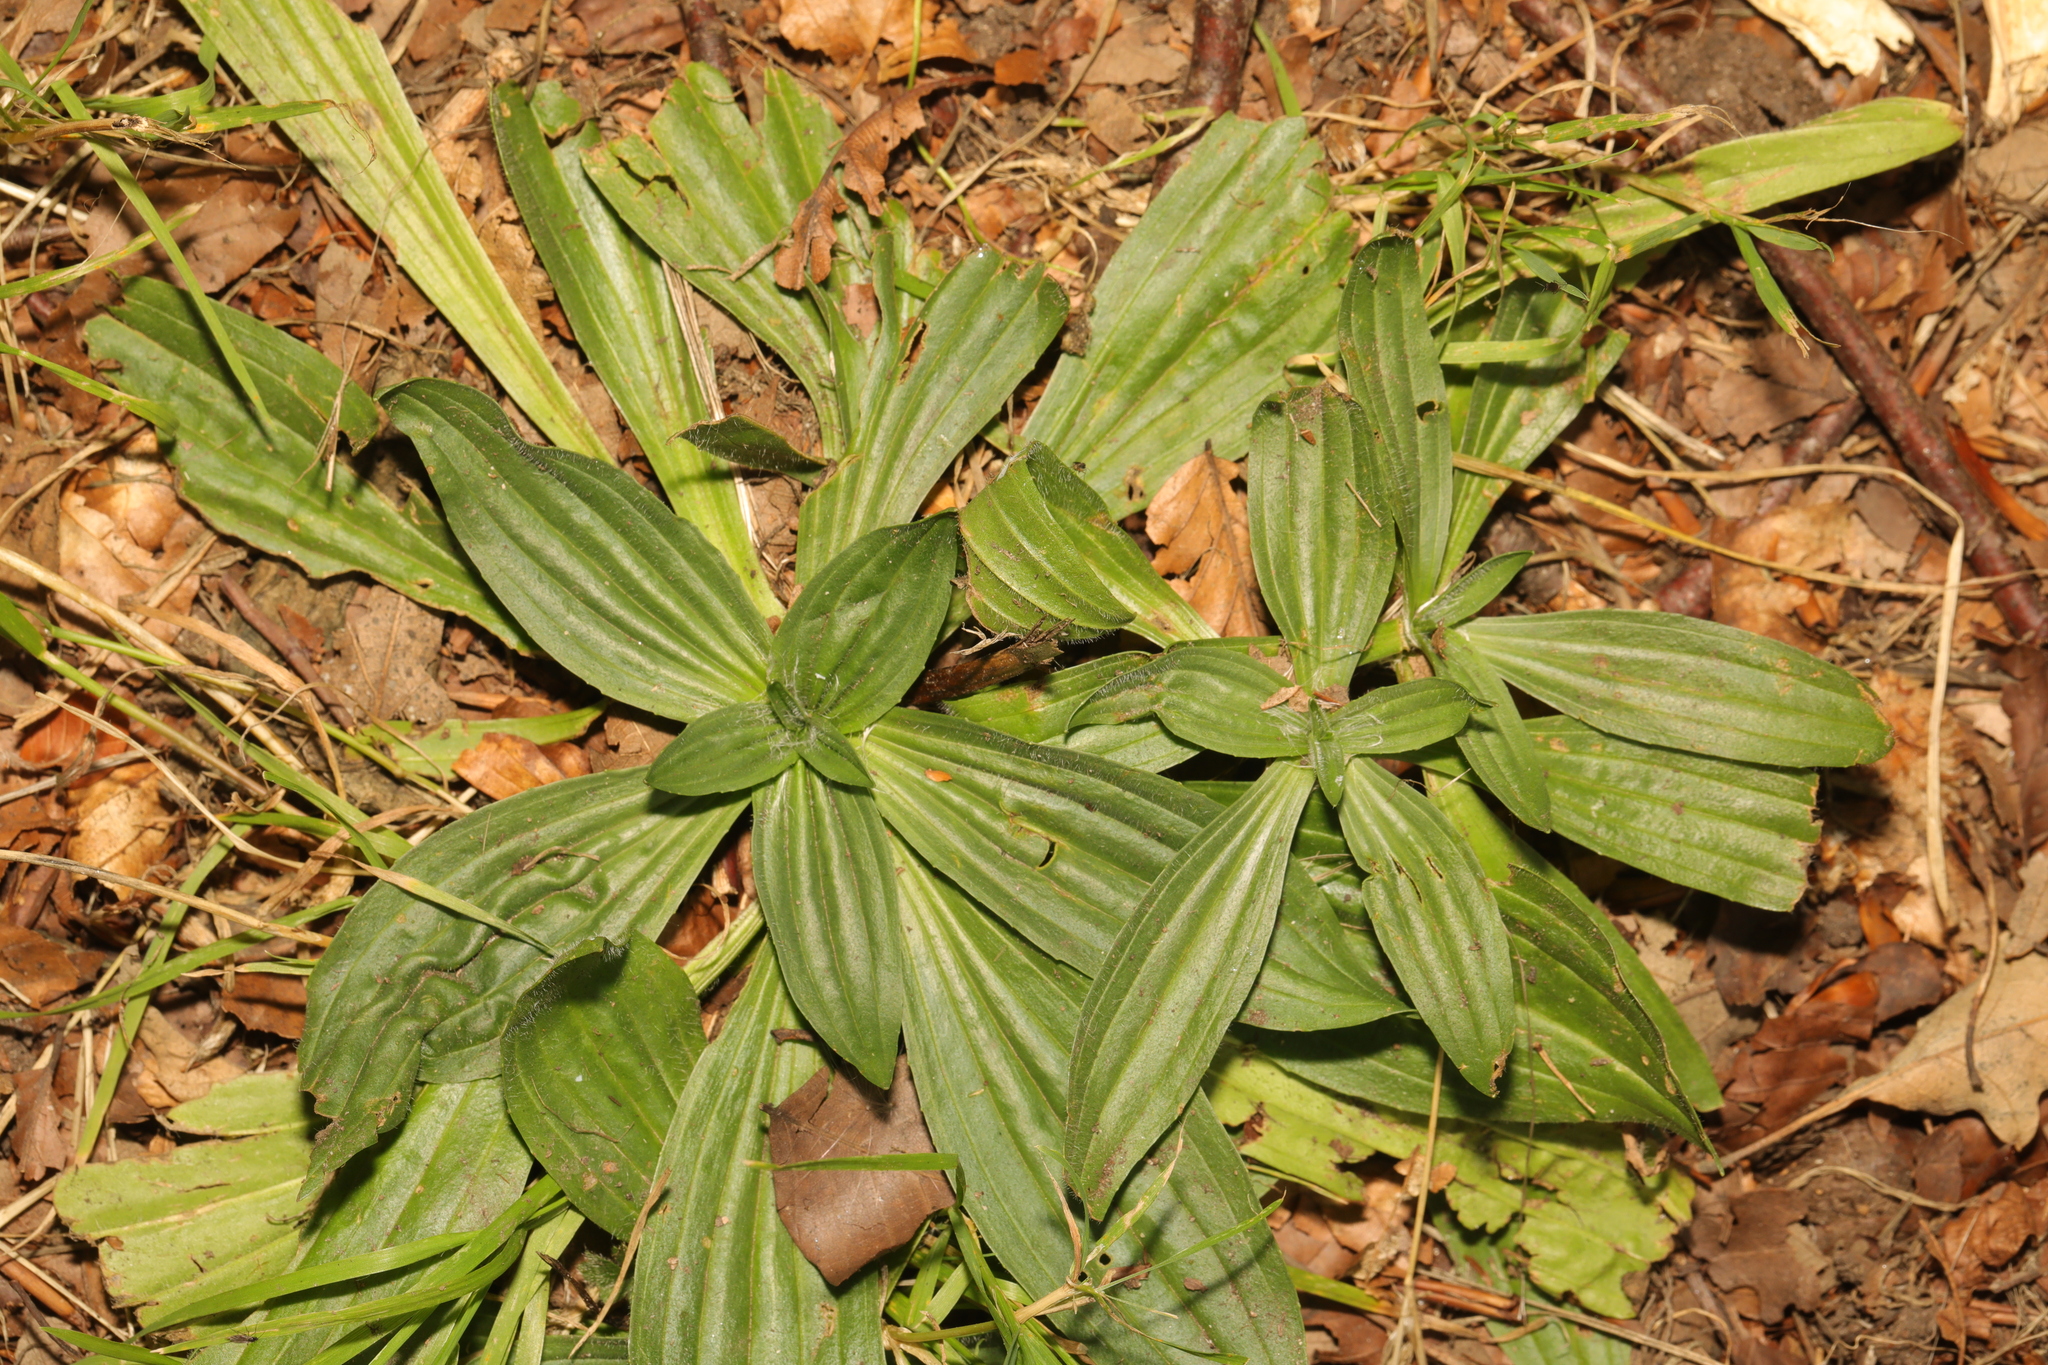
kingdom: Plantae
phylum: Tracheophyta
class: Magnoliopsida
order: Lamiales
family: Plantaginaceae
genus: Plantago
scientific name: Plantago lanceolata
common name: Ribwort plantain
